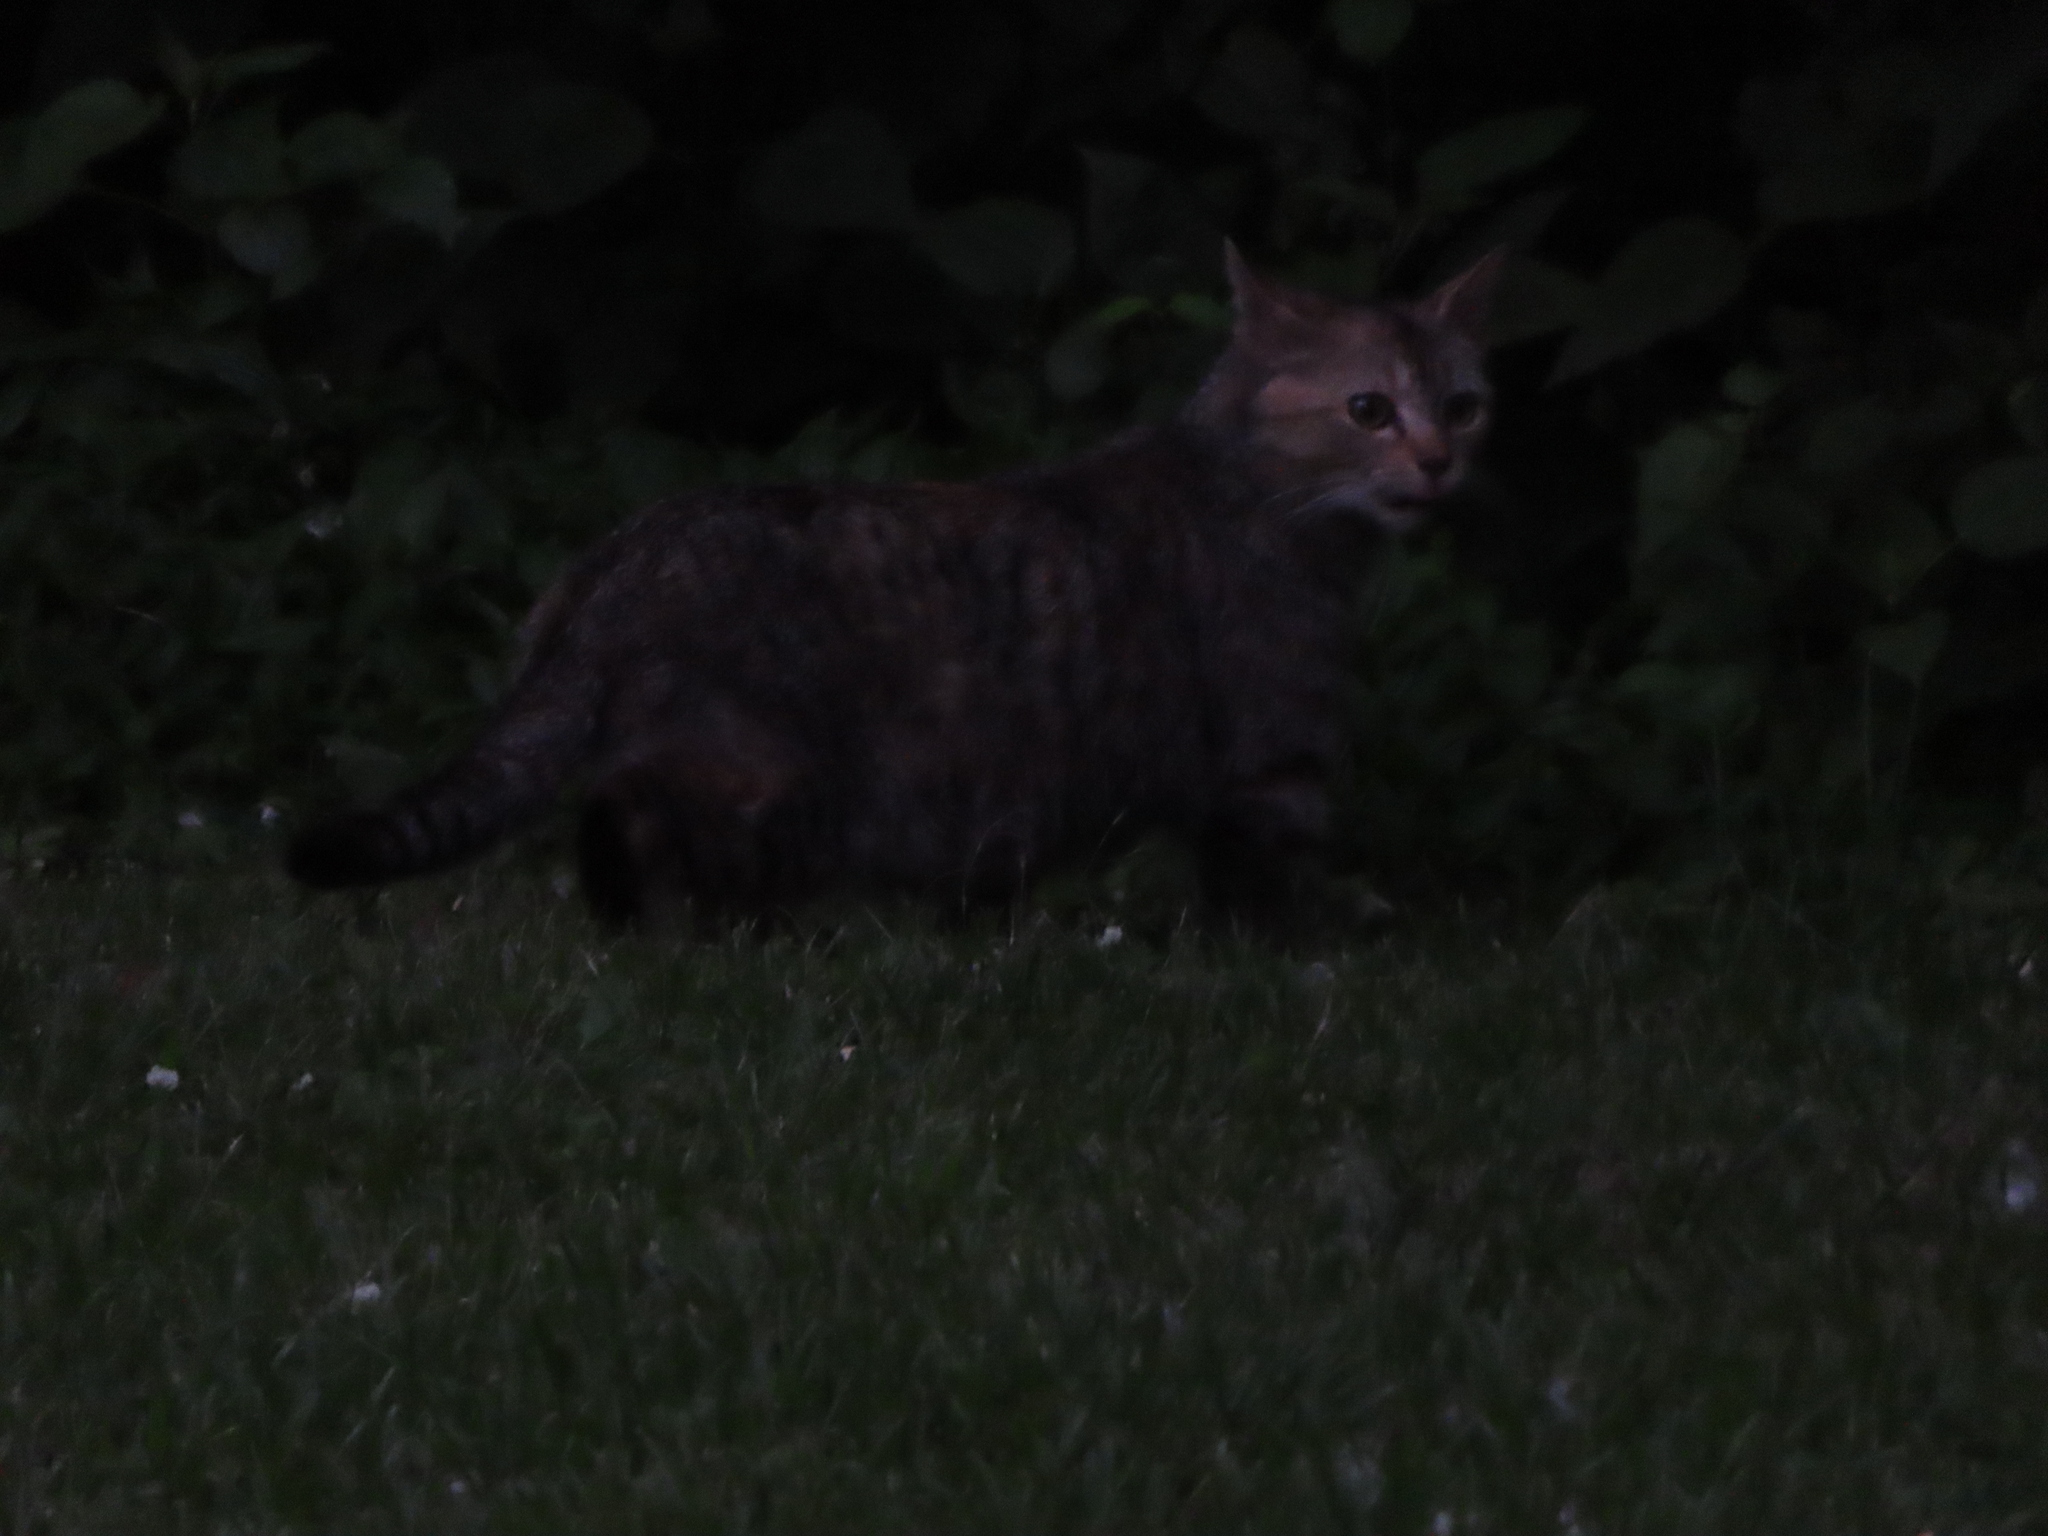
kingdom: Animalia
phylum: Chordata
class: Mammalia
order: Carnivora
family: Felidae
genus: Felis
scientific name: Felis catus
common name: Domestic cat
